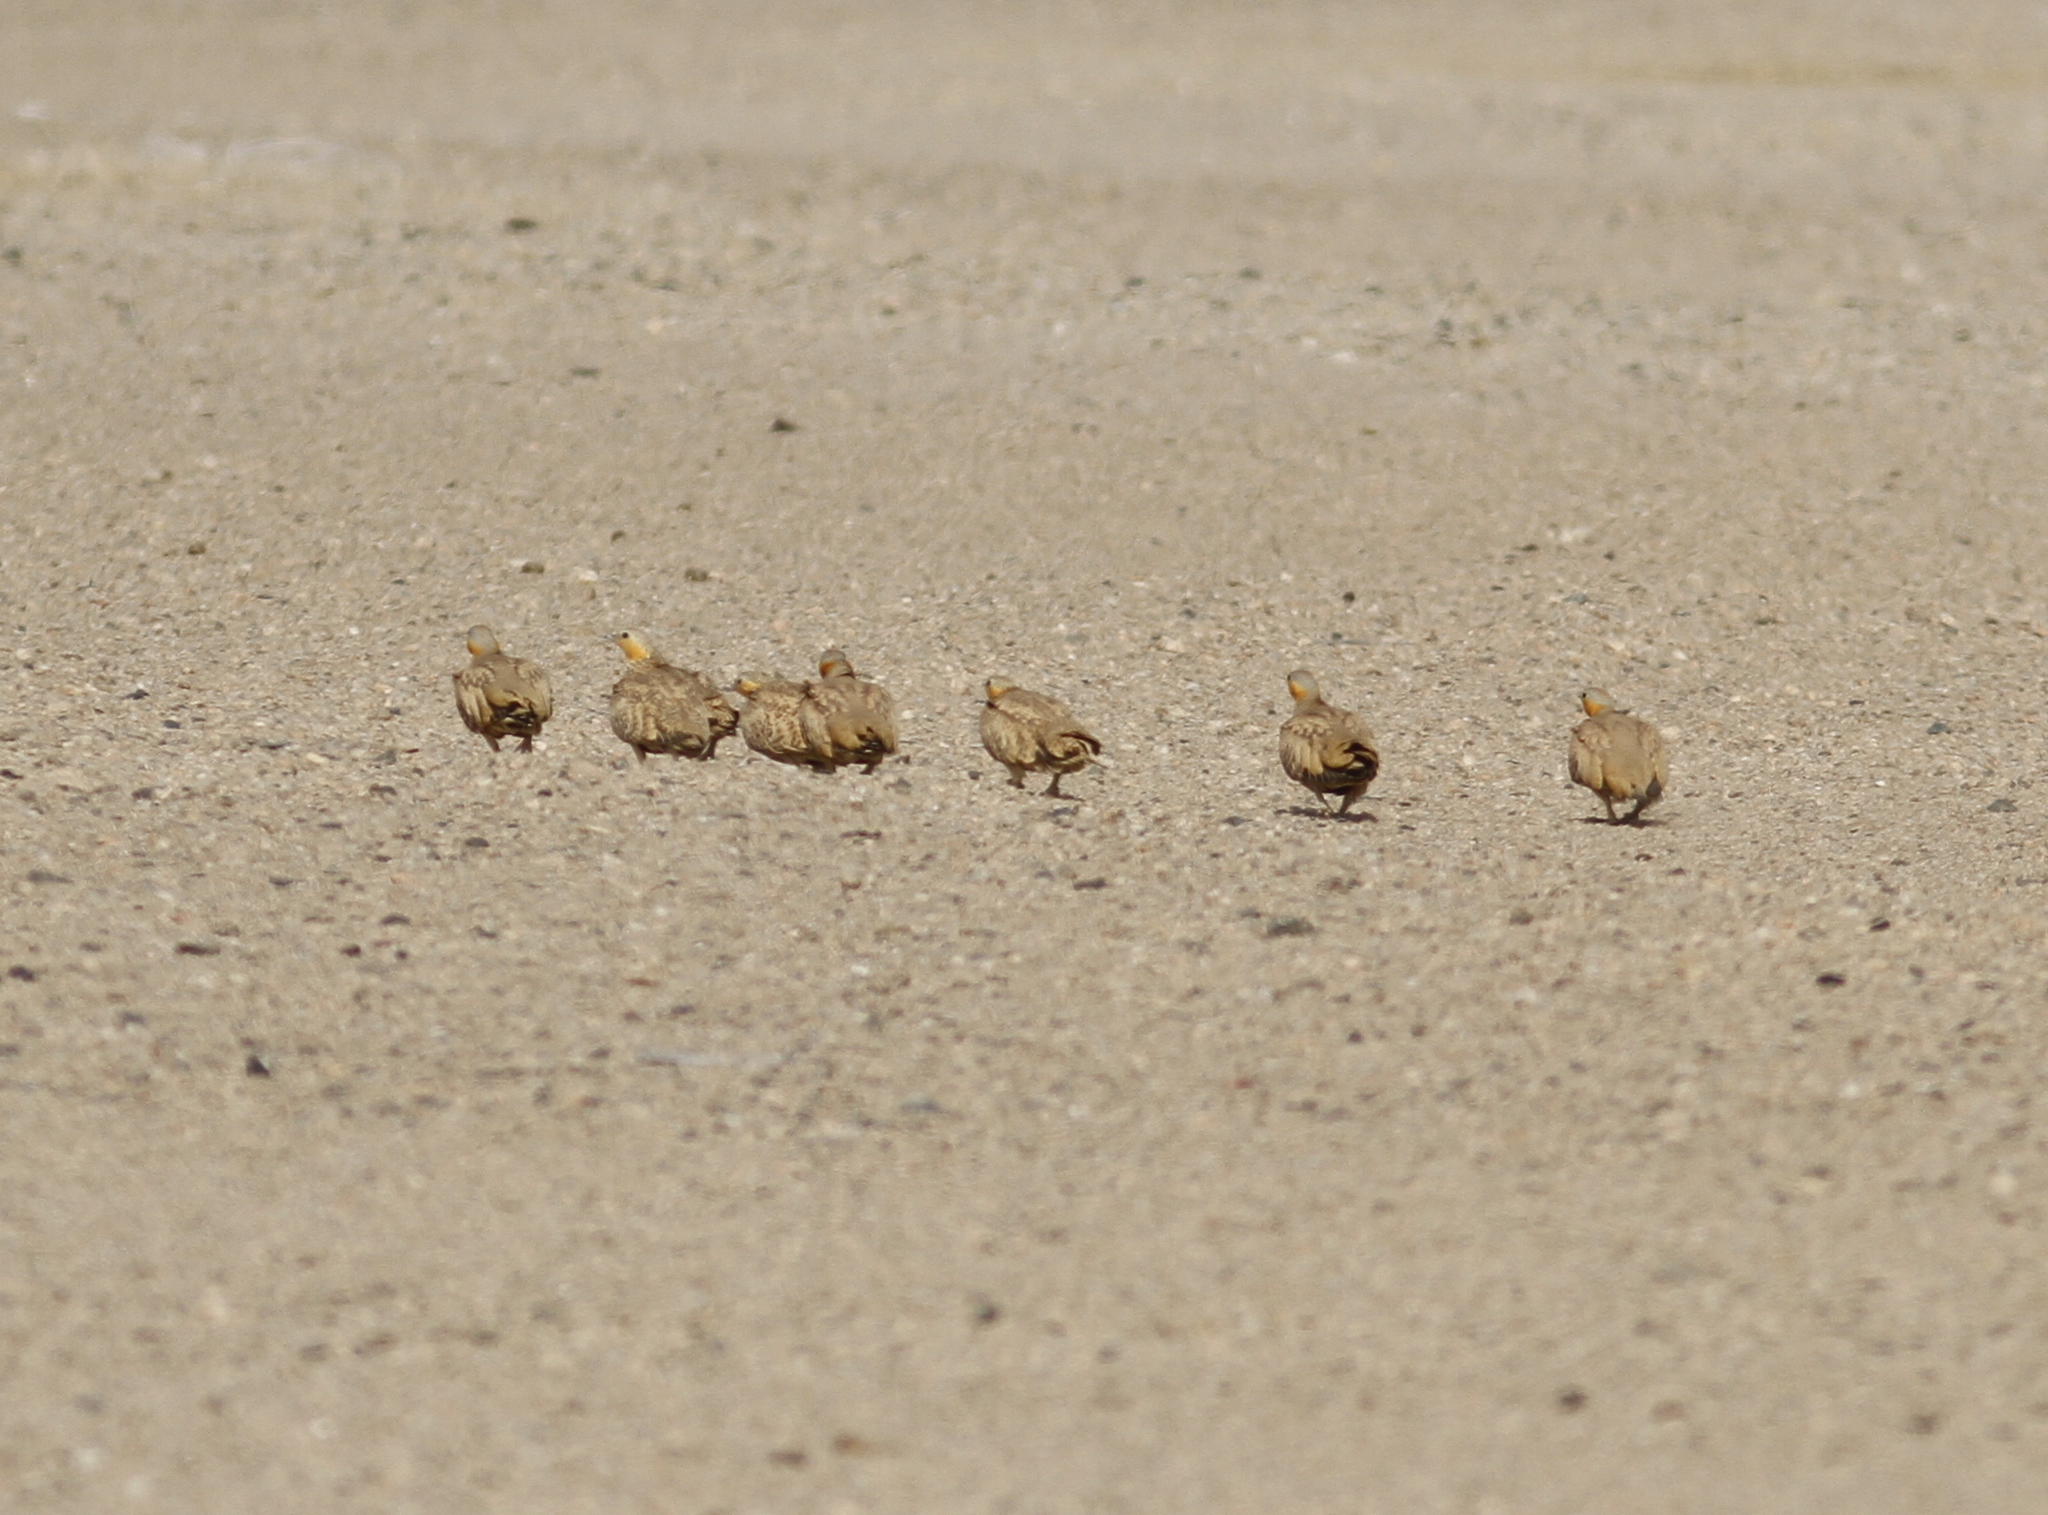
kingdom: Animalia
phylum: Chordata
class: Aves
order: Pteroclidiformes
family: Pteroclididae
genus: Pterocles
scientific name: Pterocles senegallus
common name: Spotted sandgrouse
